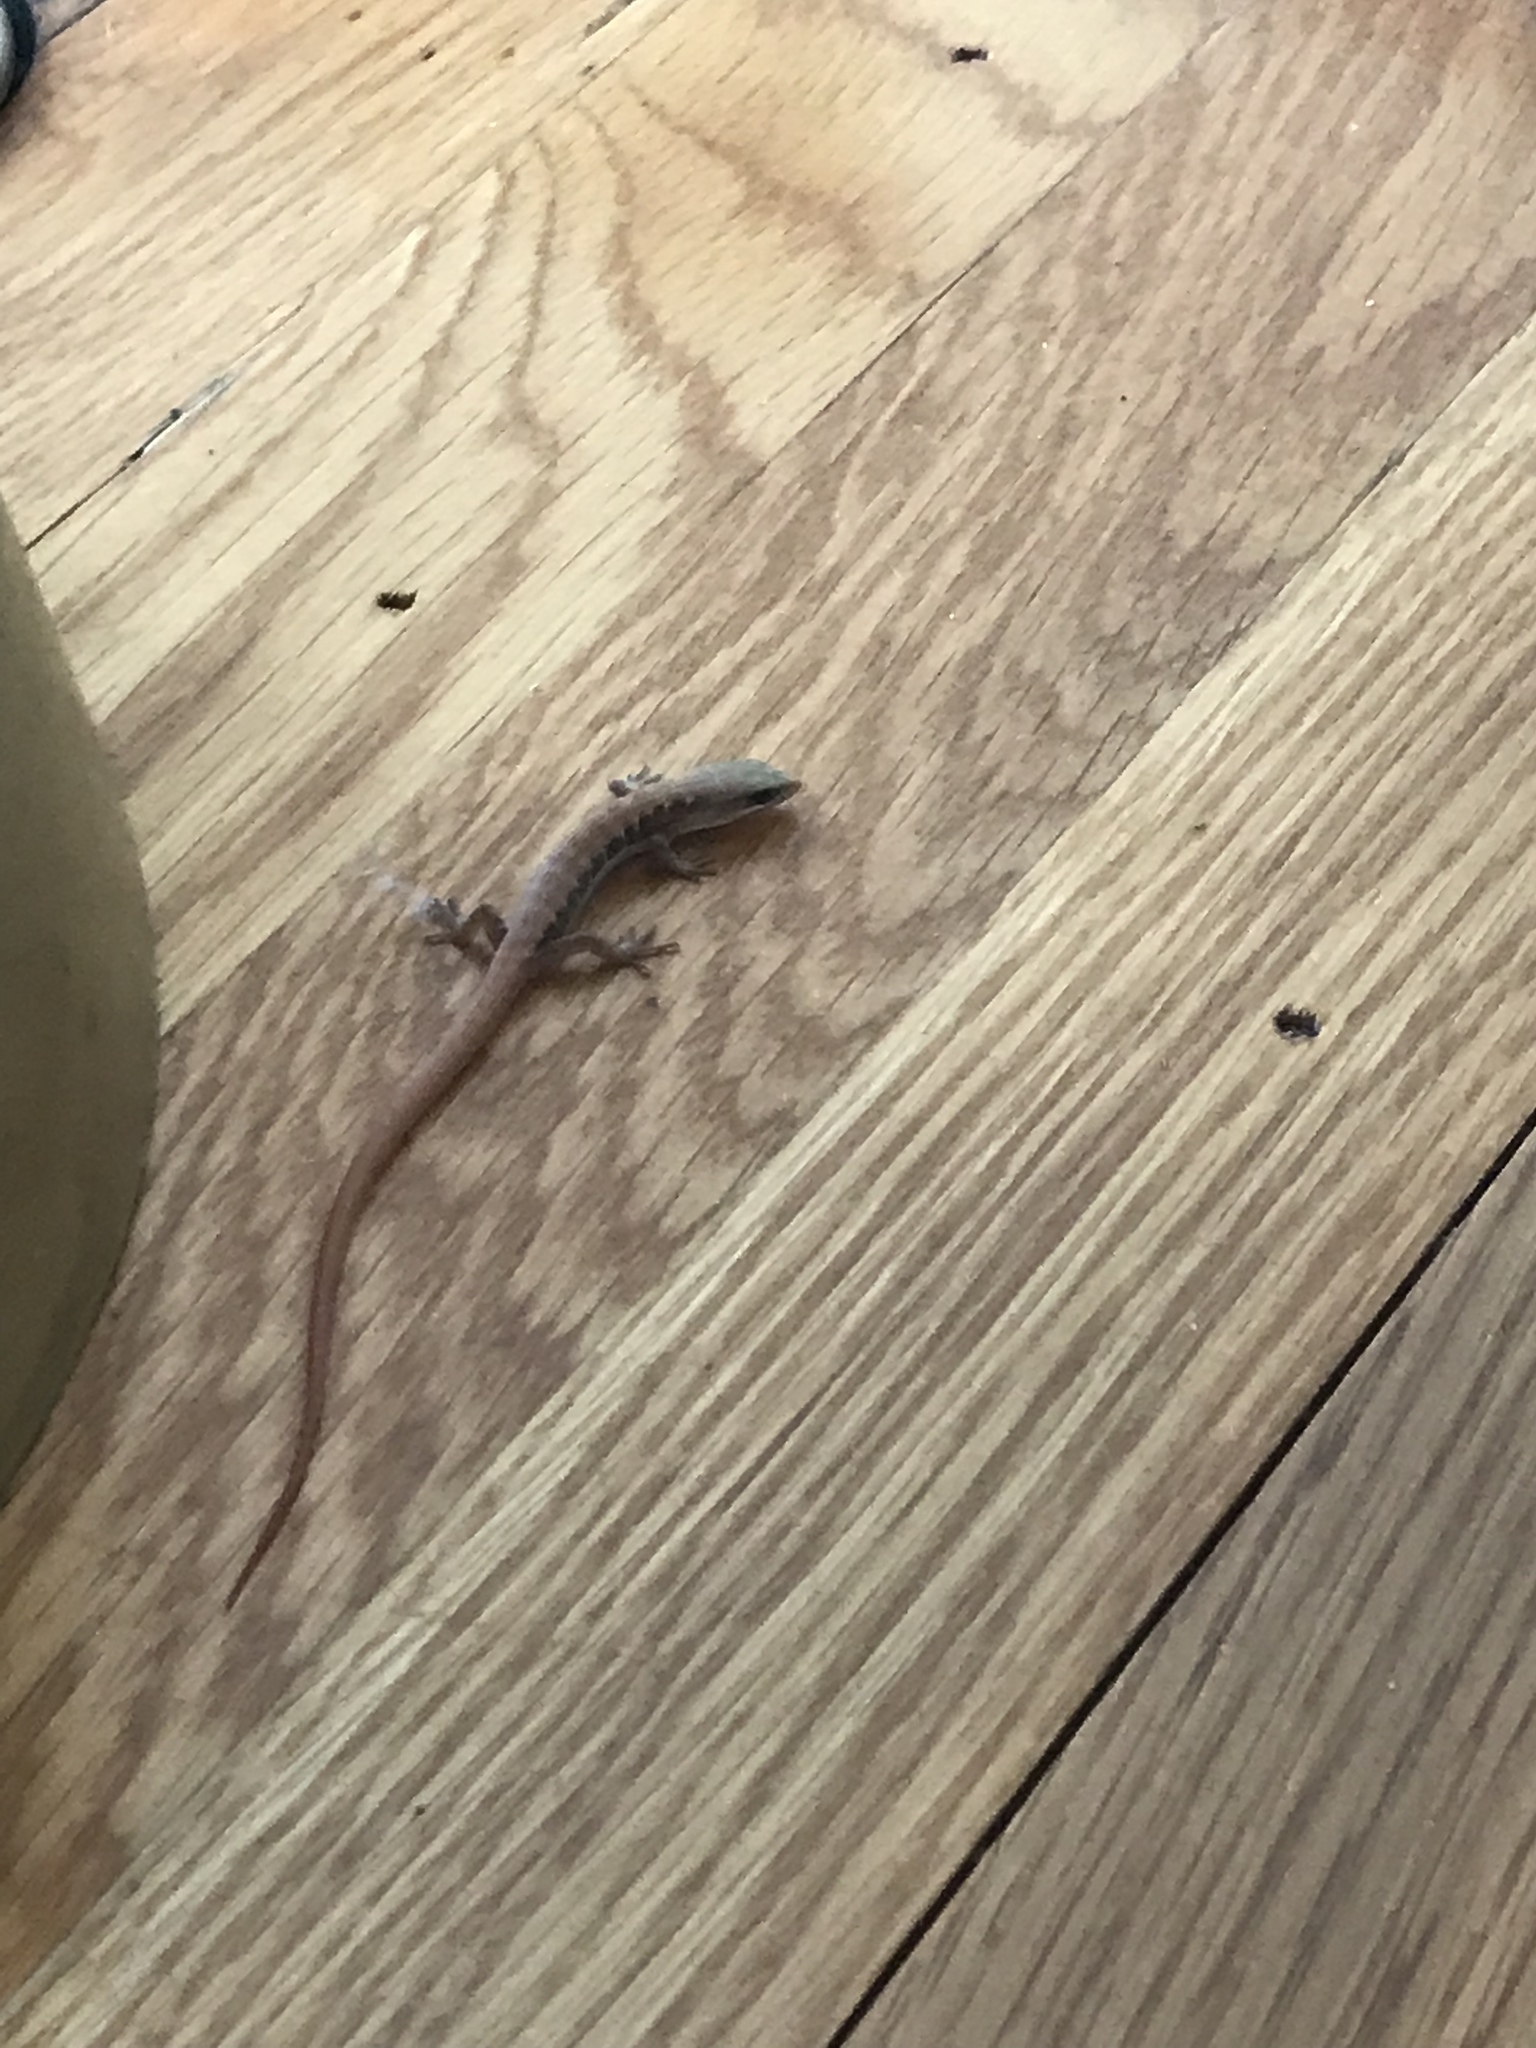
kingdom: Animalia
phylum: Chordata
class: Squamata
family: Anguidae
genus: Elgaria
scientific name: Elgaria multicarinata
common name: Southern alligator lizard
